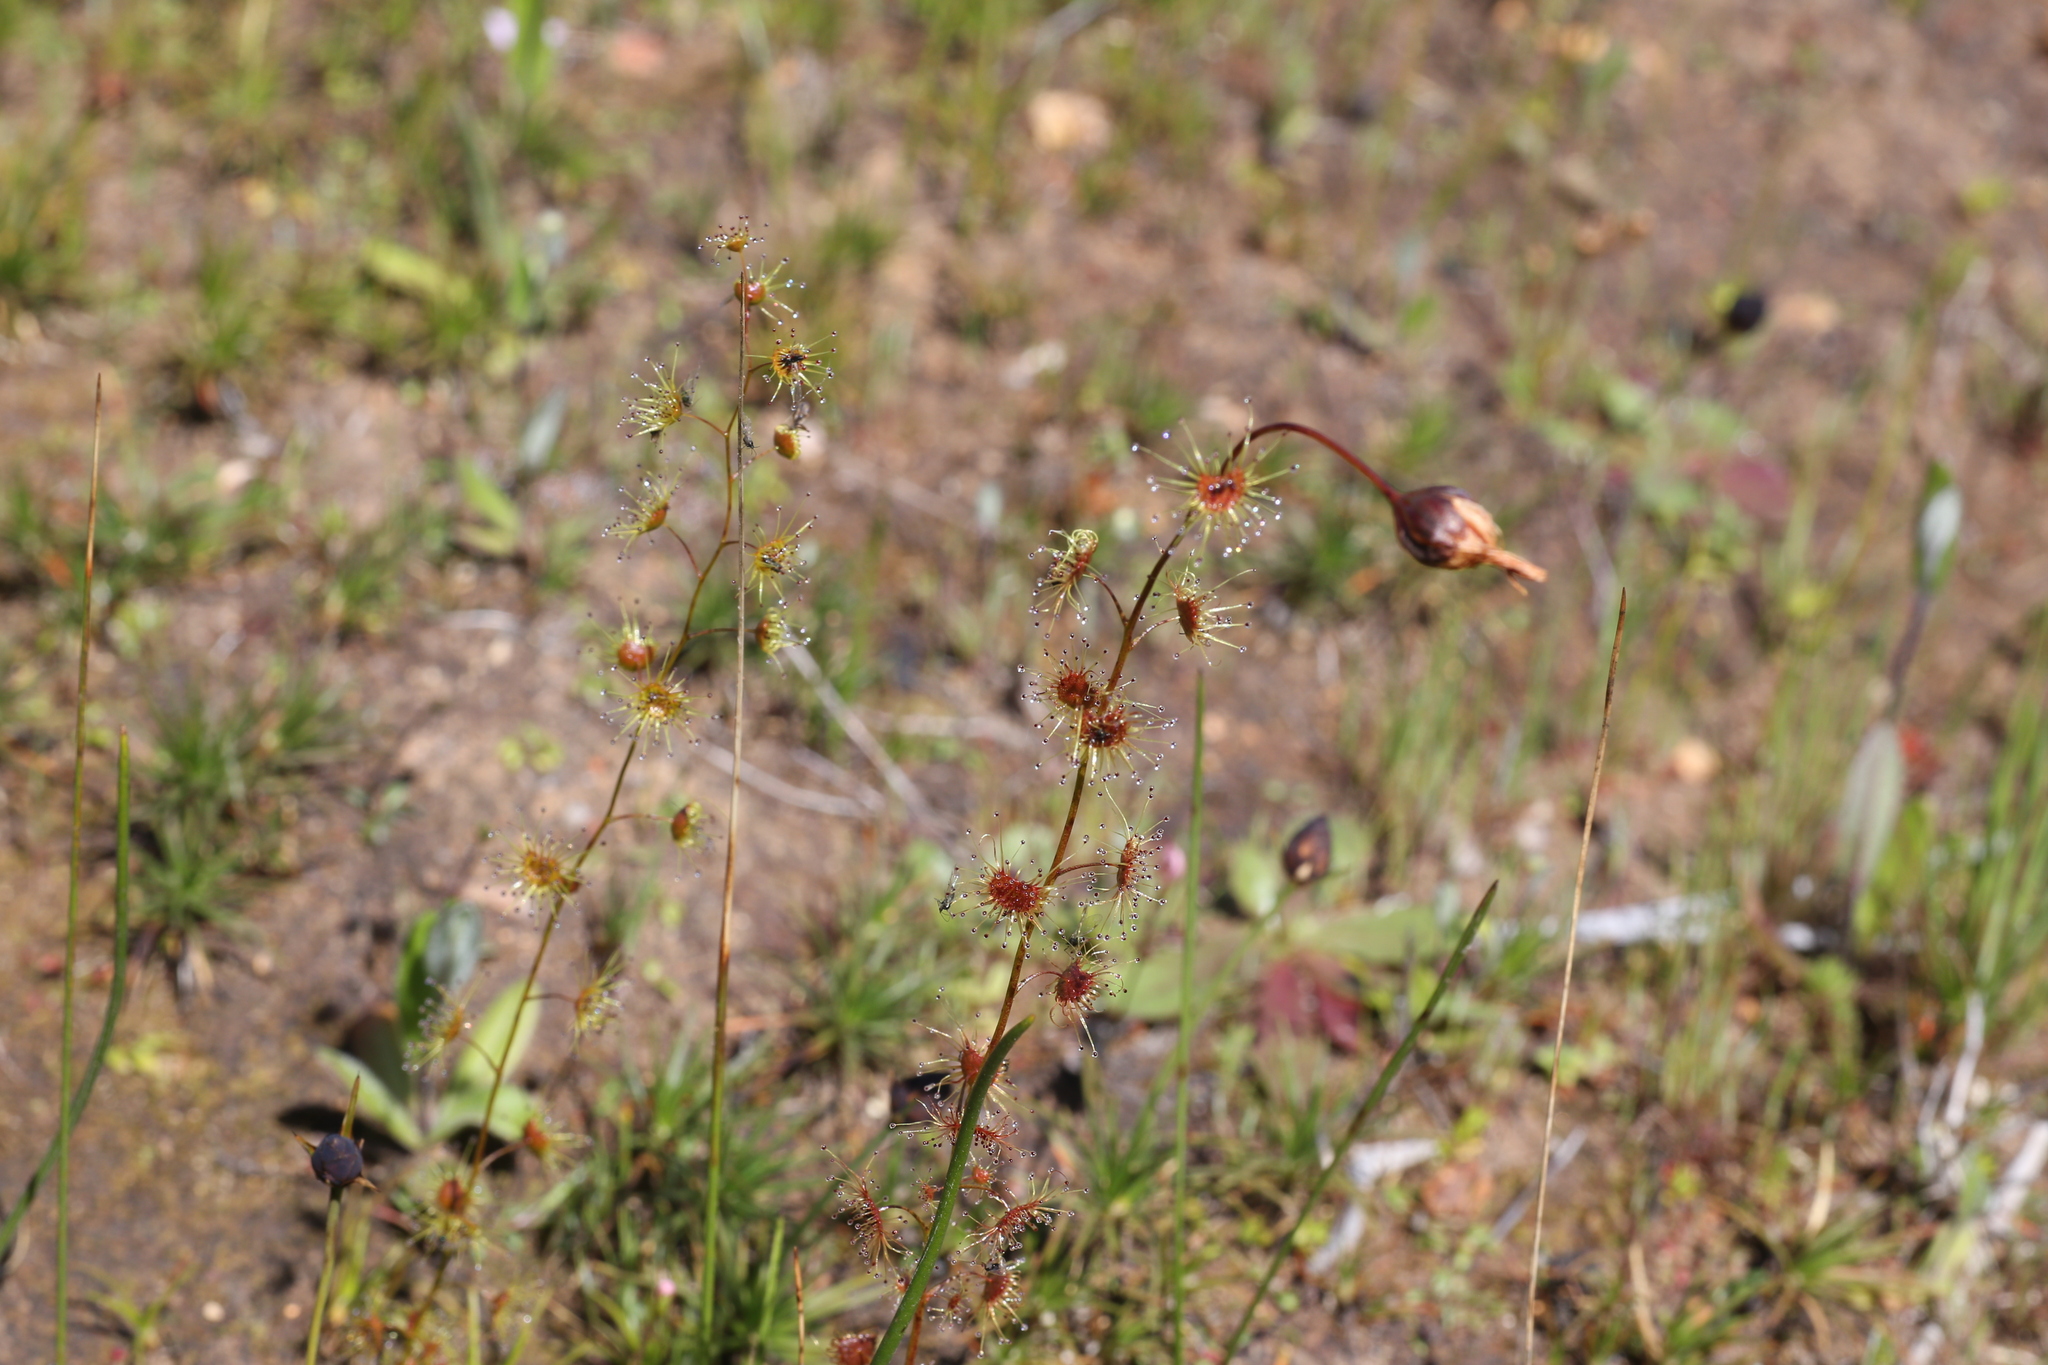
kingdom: Plantae
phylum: Tracheophyta
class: Magnoliopsida
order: Caryophyllales
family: Droseraceae
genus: Drosera
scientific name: Drosera heterophylla
